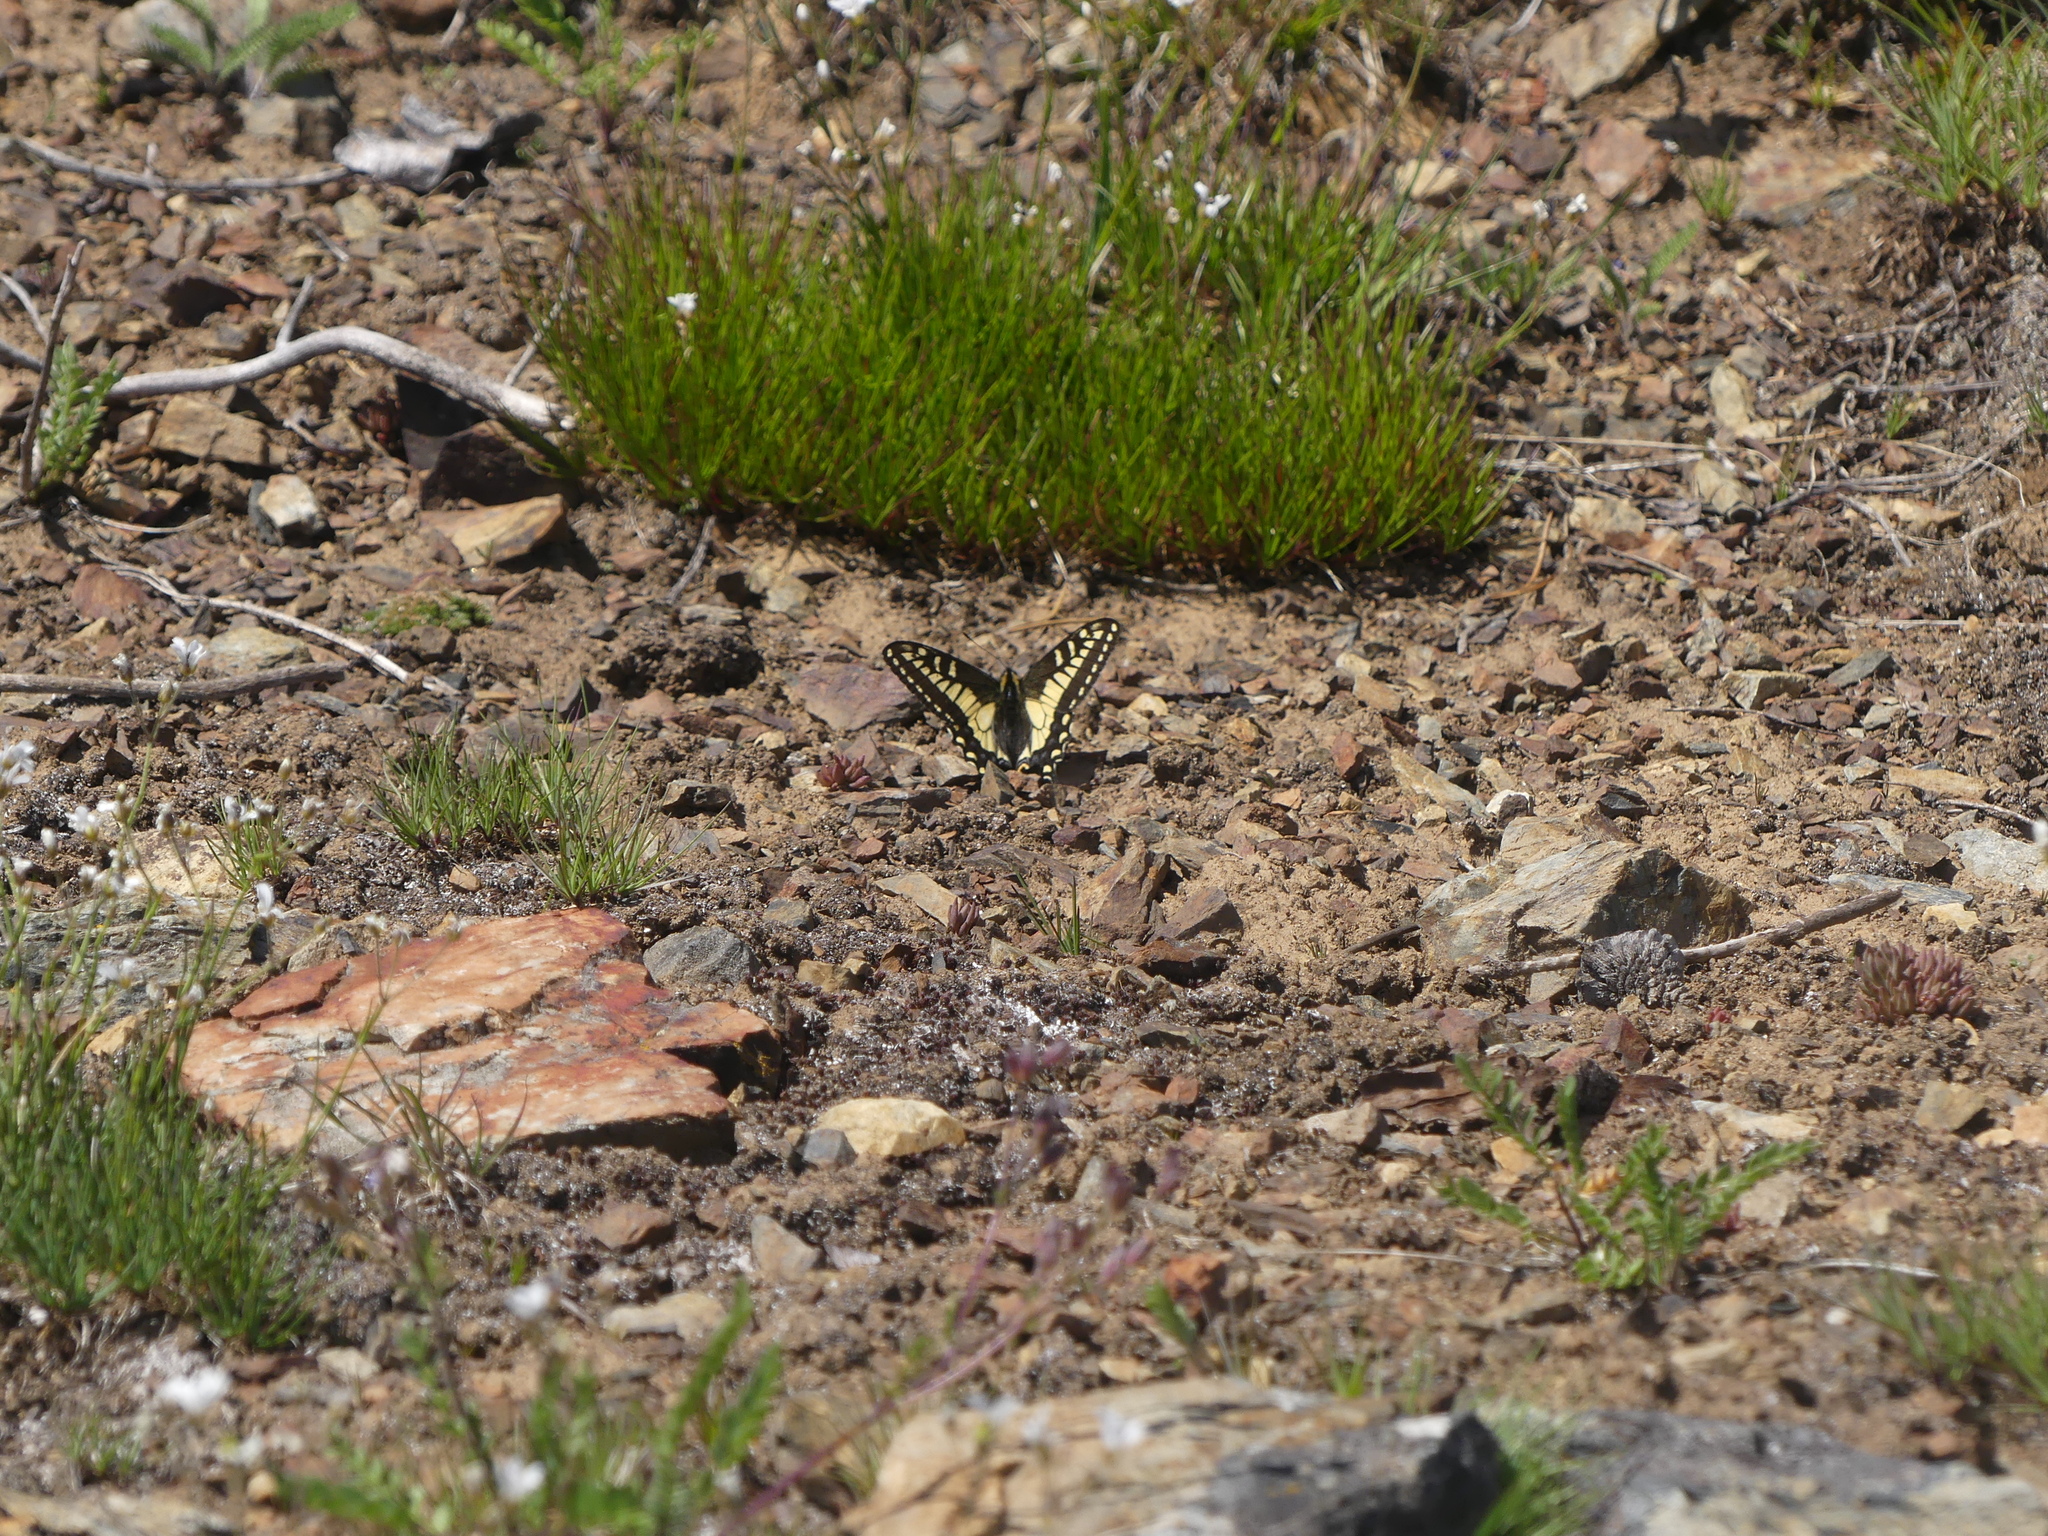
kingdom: Animalia
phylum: Arthropoda
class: Insecta
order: Lepidoptera
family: Papilionidae
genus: Papilio
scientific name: Papilio zelicaon
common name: Anise swallowtail
